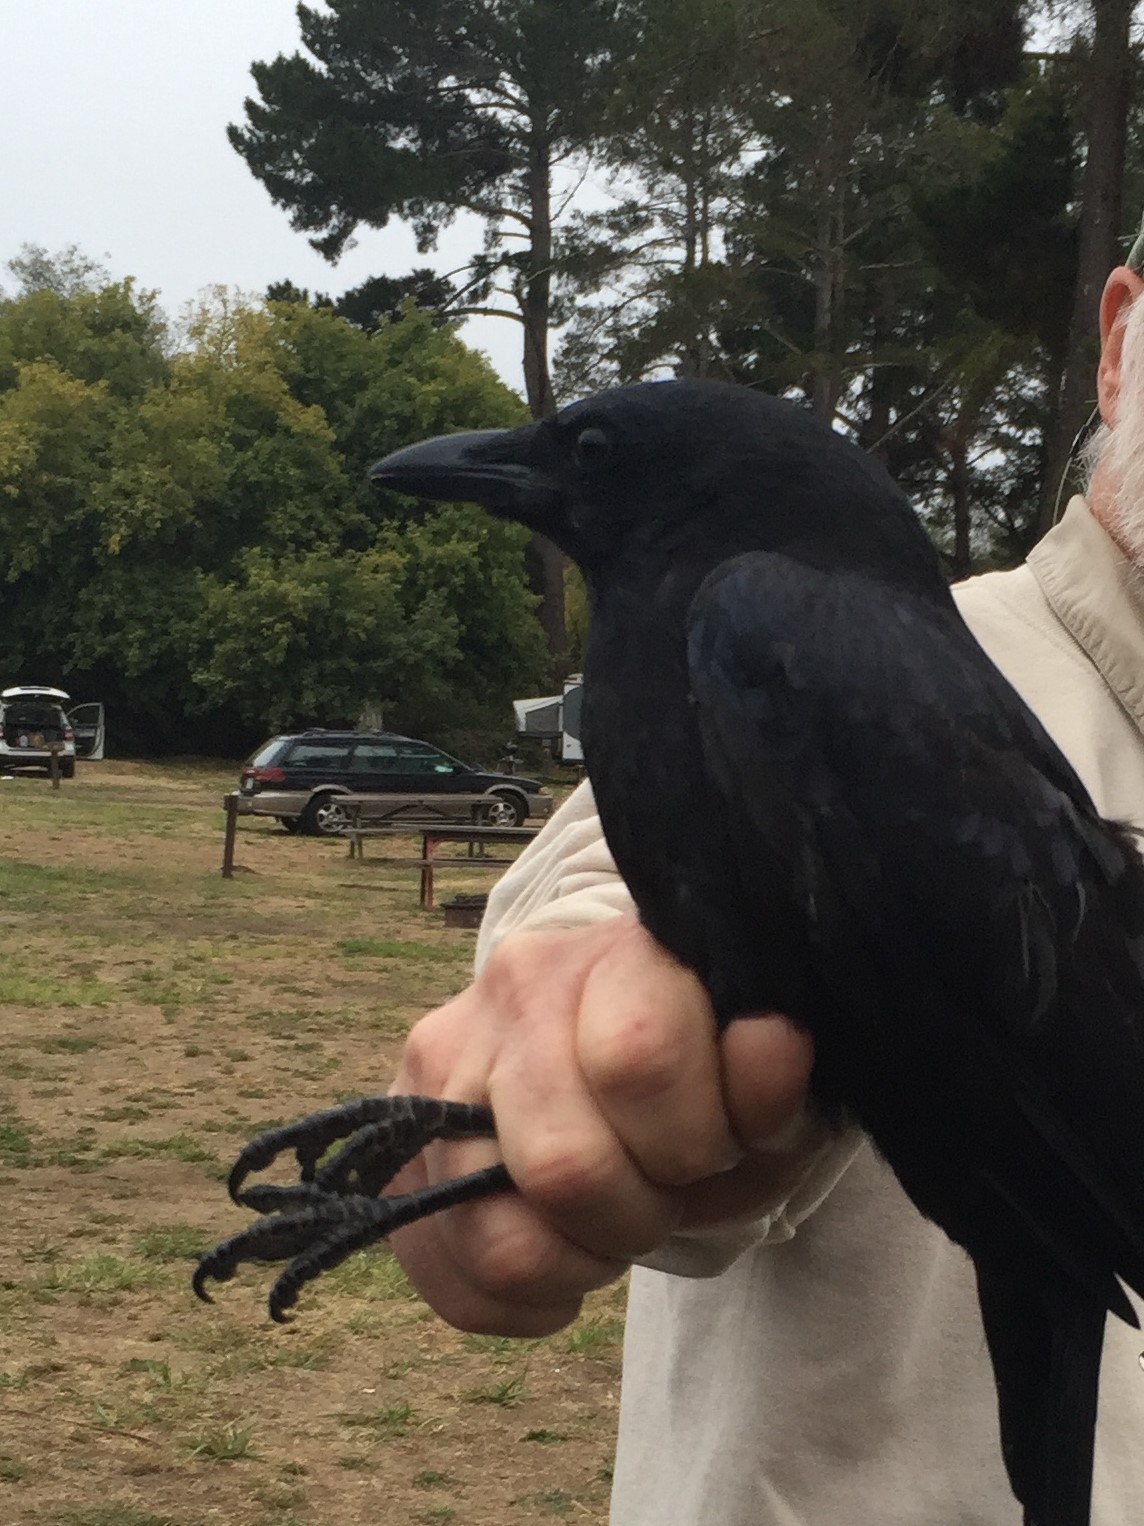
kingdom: Animalia
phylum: Chordata
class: Aves
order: Passeriformes
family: Corvidae
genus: Corvus
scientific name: Corvus brachyrhynchos
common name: American crow
